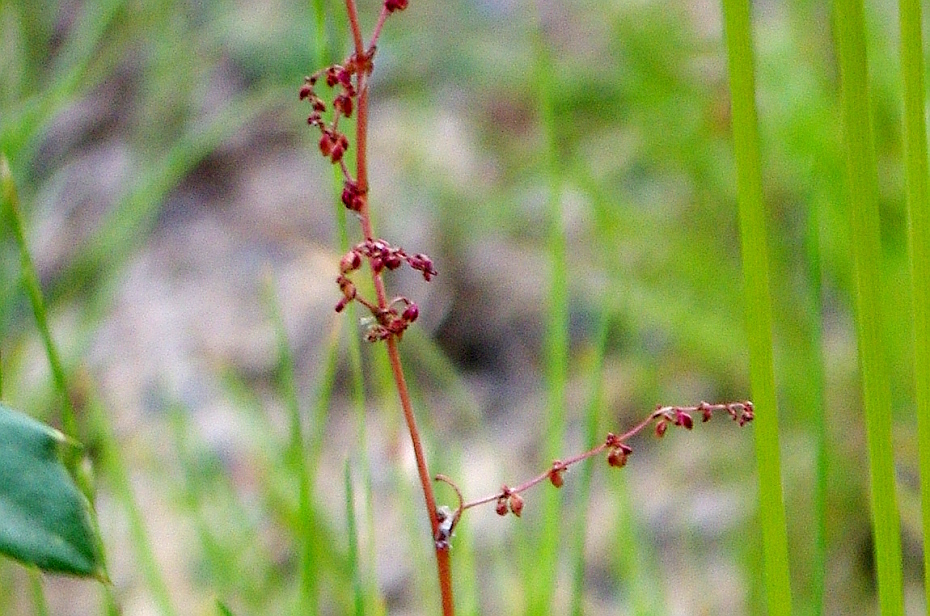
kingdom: Plantae
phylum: Tracheophyta
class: Magnoliopsida
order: Caryophyllales
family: Polygonaceae
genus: Rumex
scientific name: Rumex acetosella
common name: Common sheep sorrel
